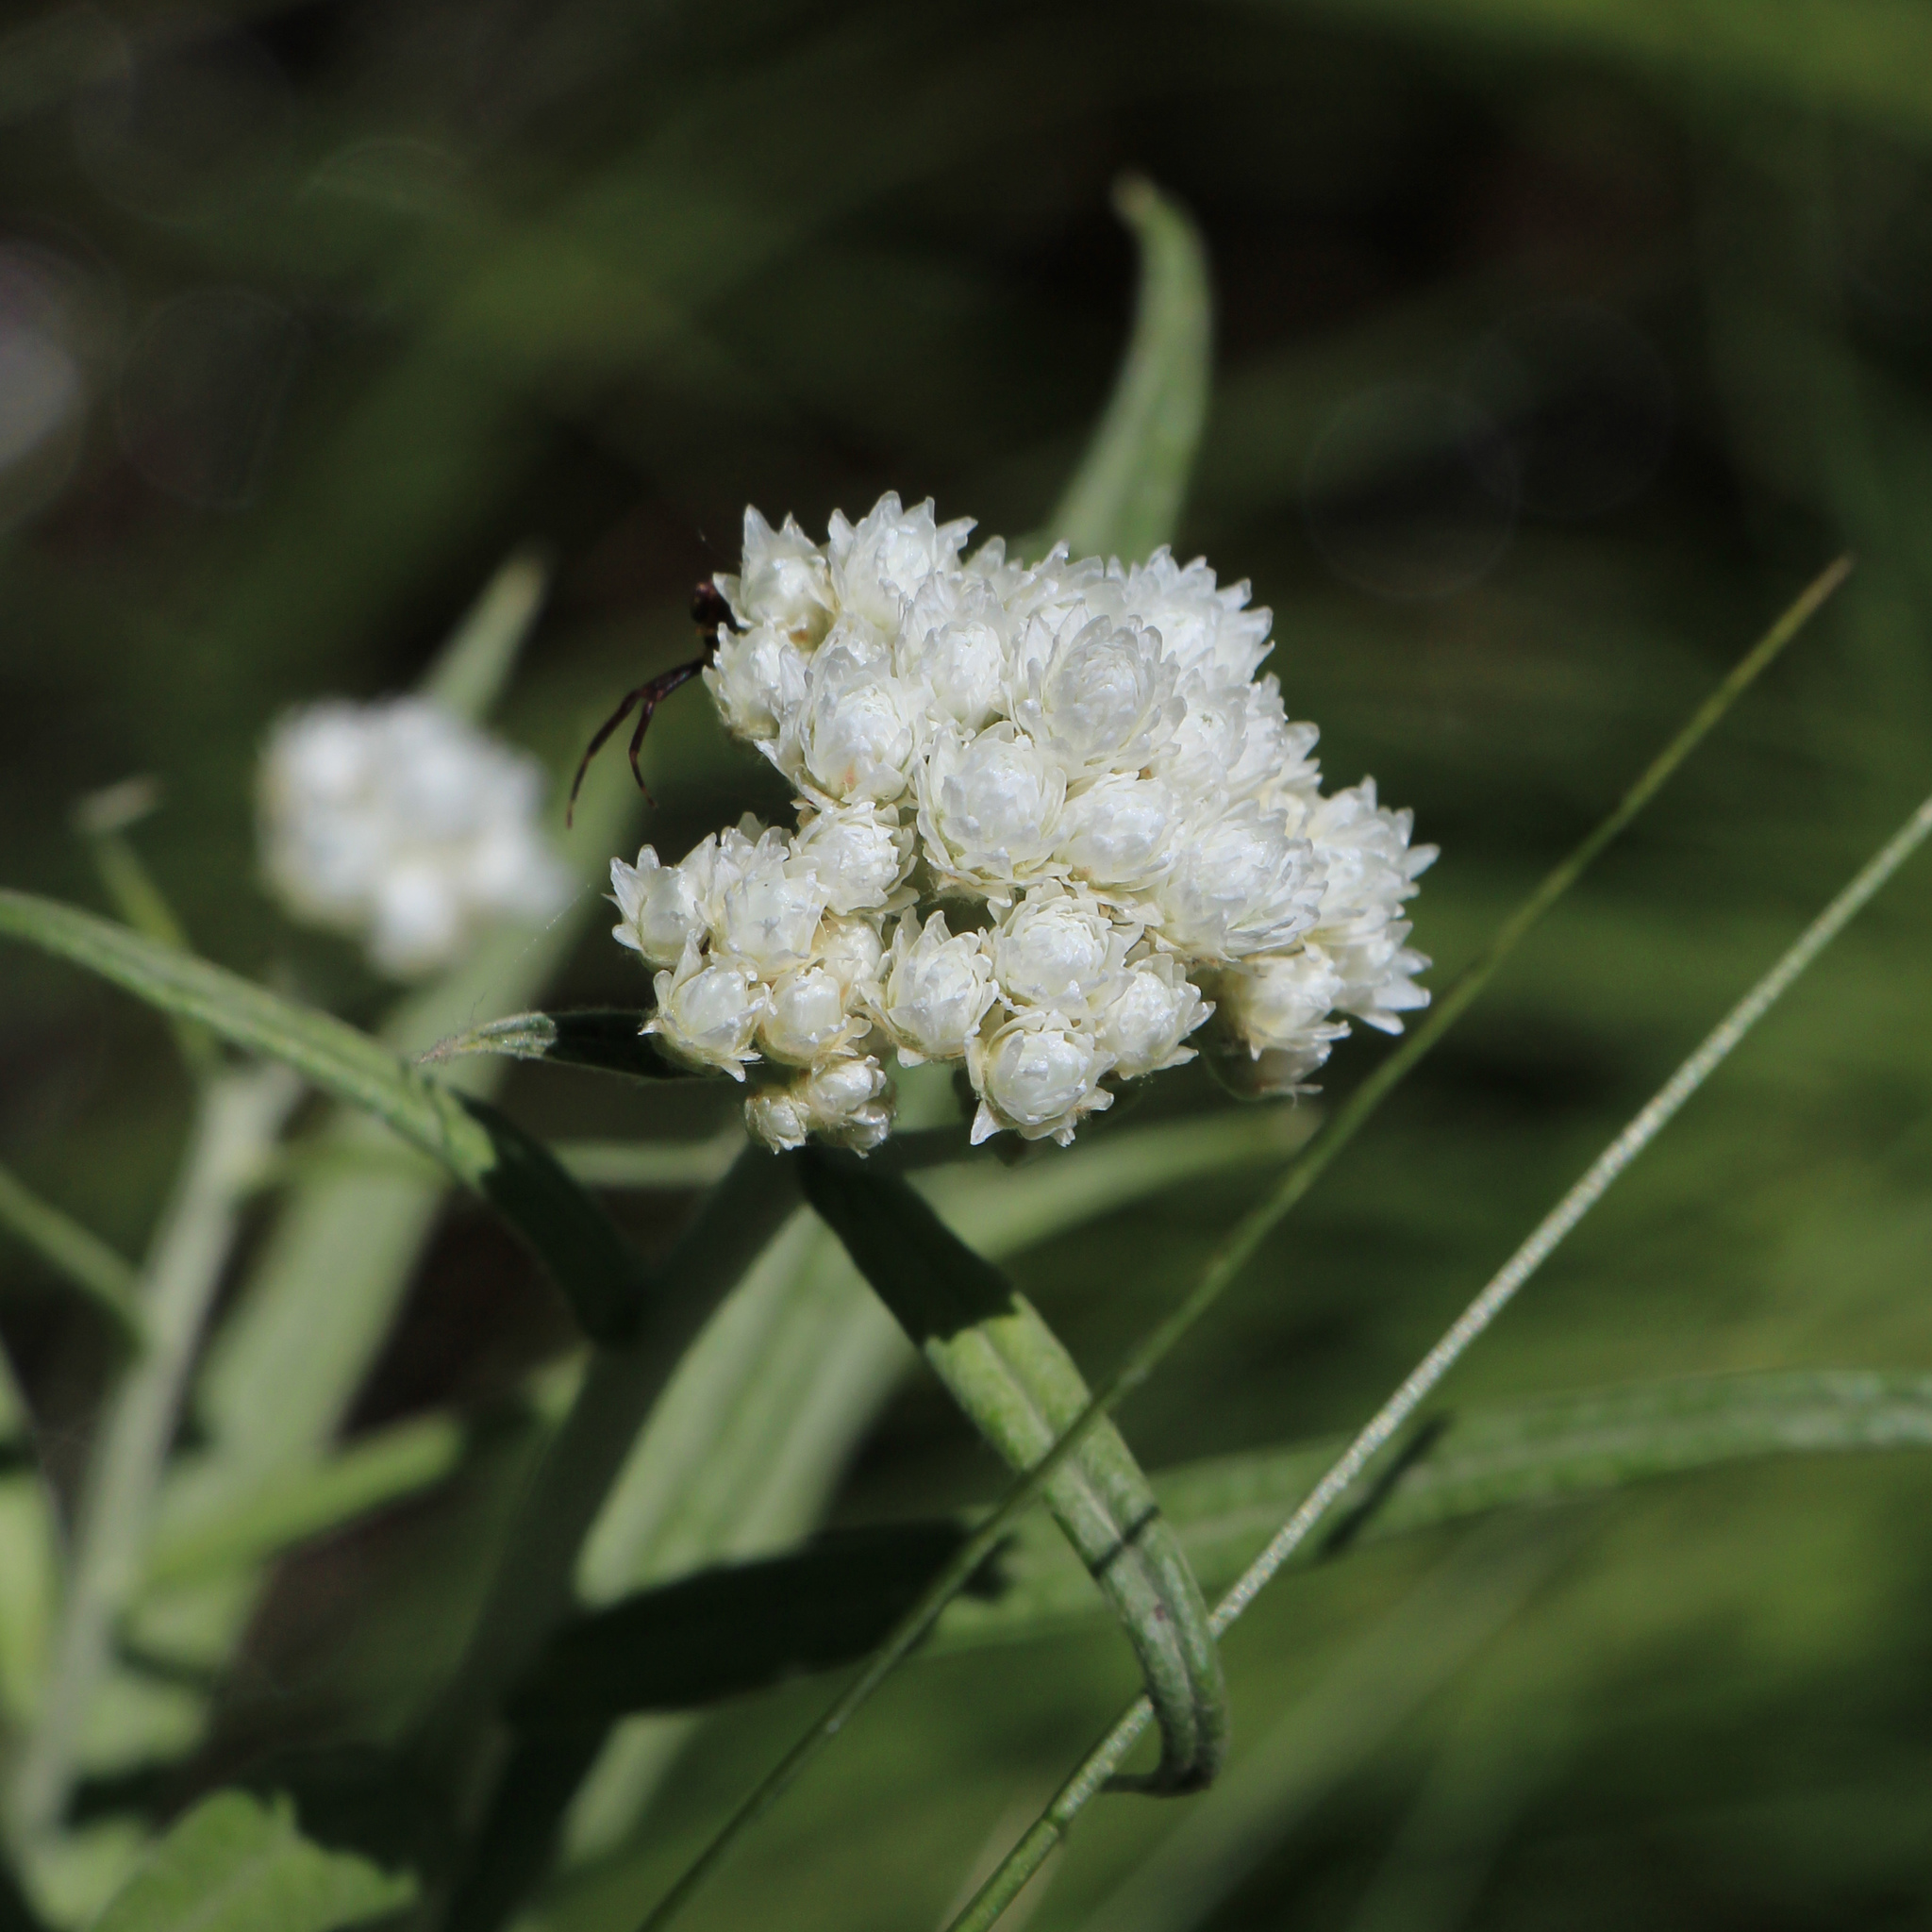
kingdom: Plantae
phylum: Tracheophyta
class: Magnoliopsida
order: Asterales
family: Asteraceae
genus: Anaphalis
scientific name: Anaphalis margaritacea
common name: Pearly everlasting
